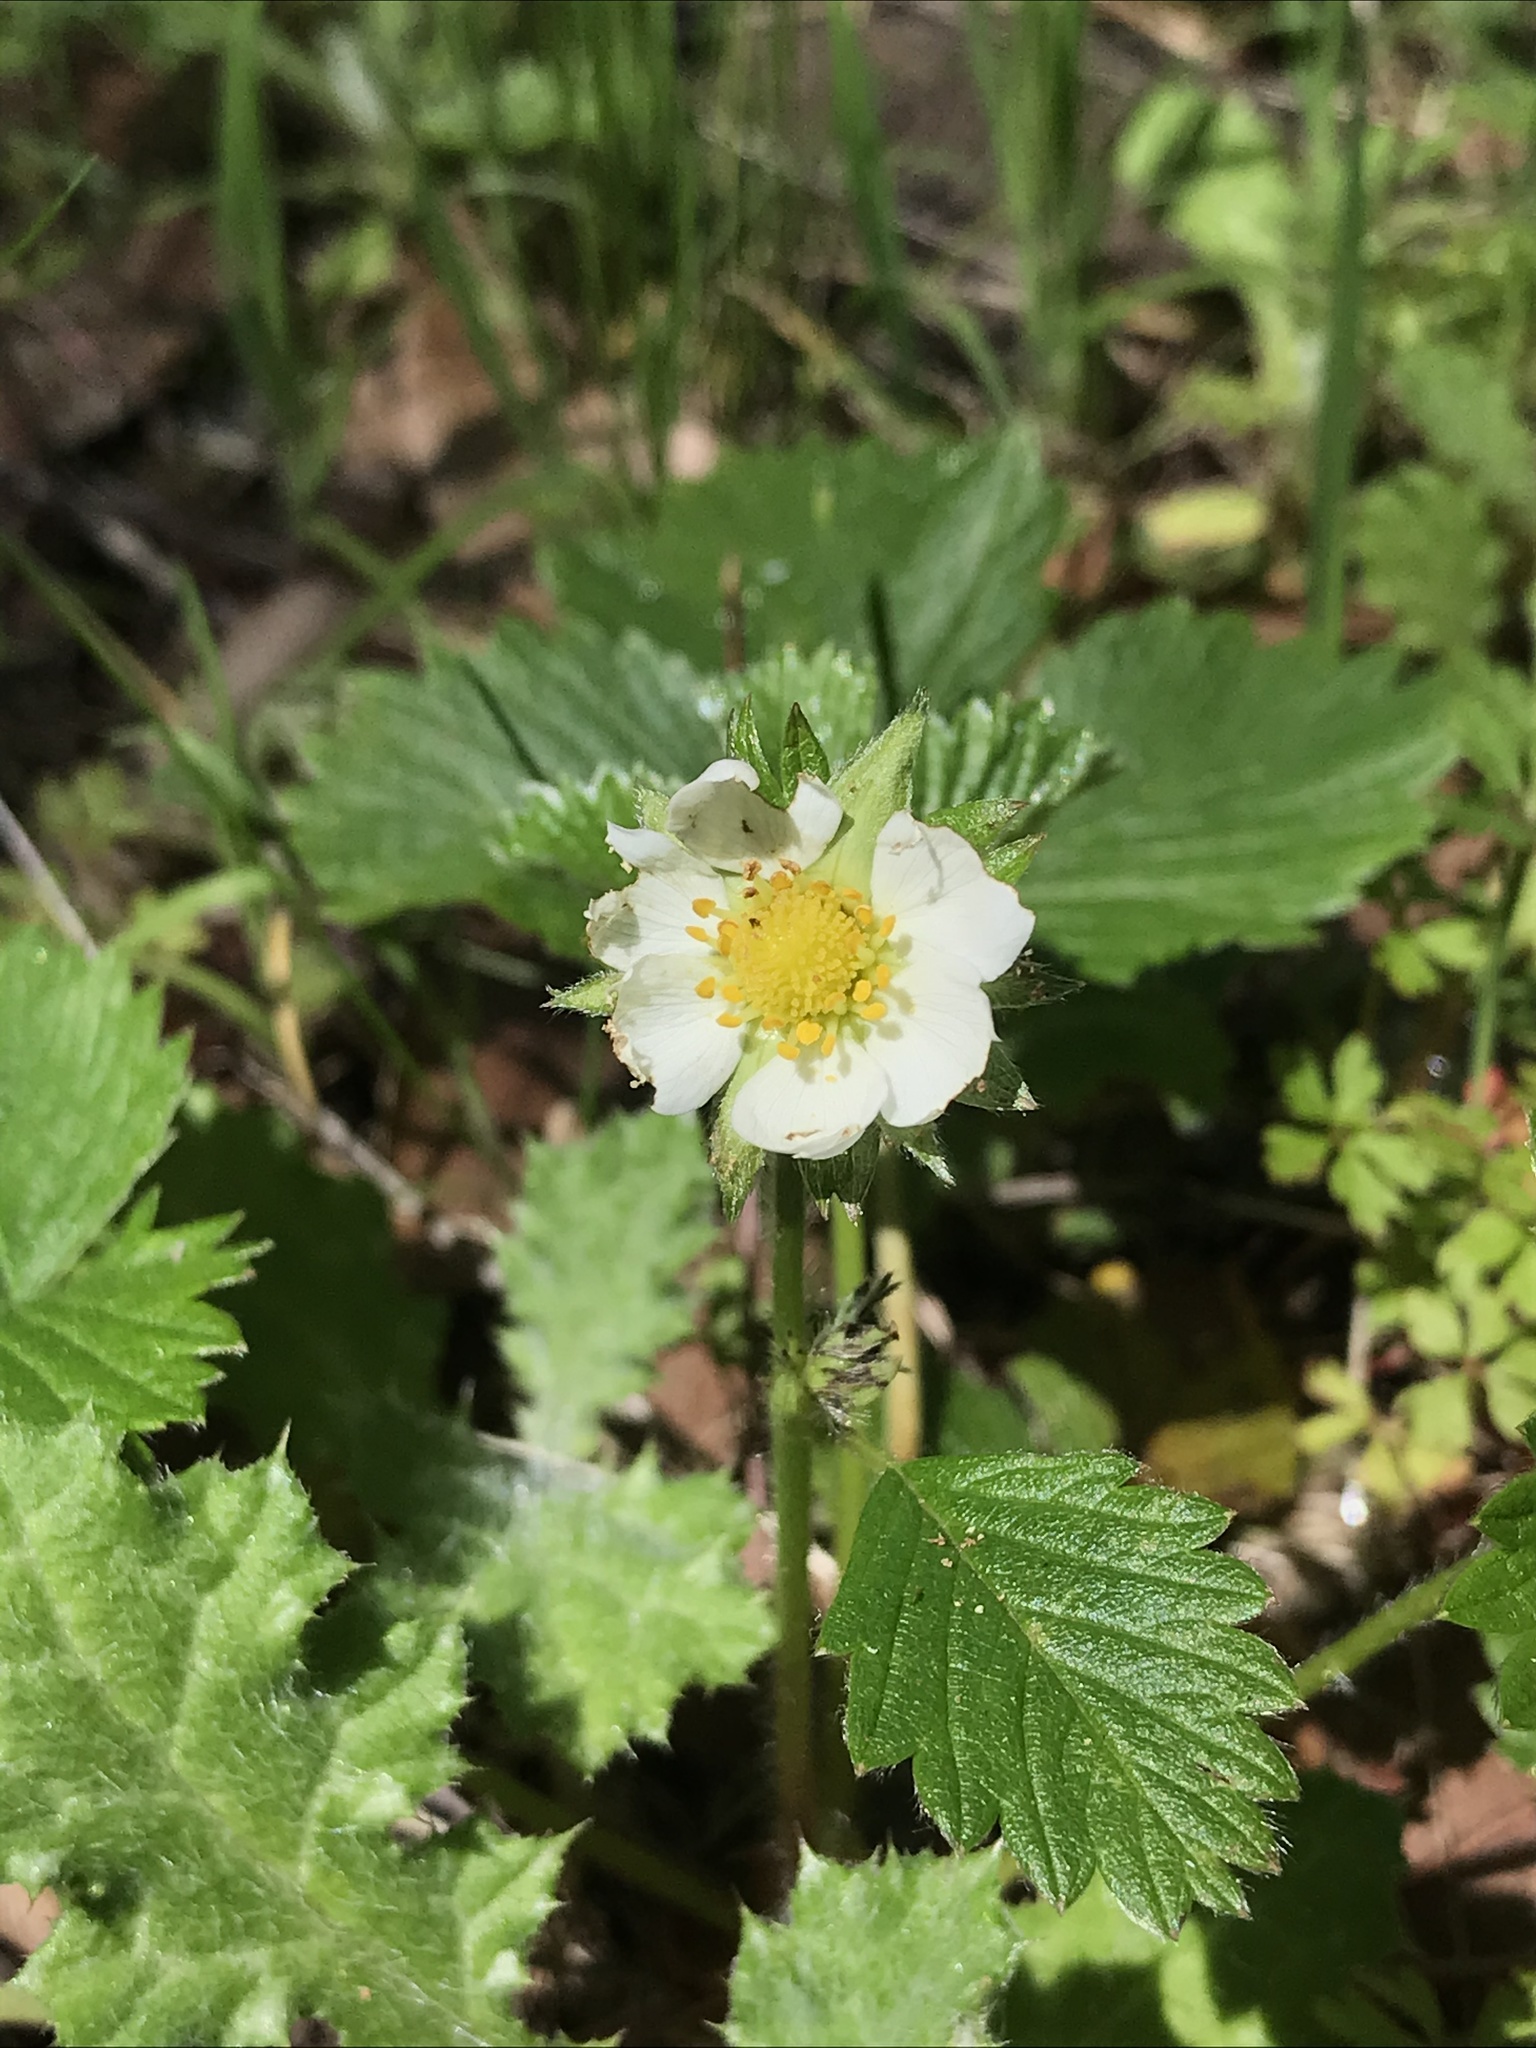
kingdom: Plantae
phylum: Tracheophyta
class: Magnoliopsida
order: Rosales
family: Rosaceae
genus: Fragaria
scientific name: Fragaria vesca
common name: Wild strawberry
